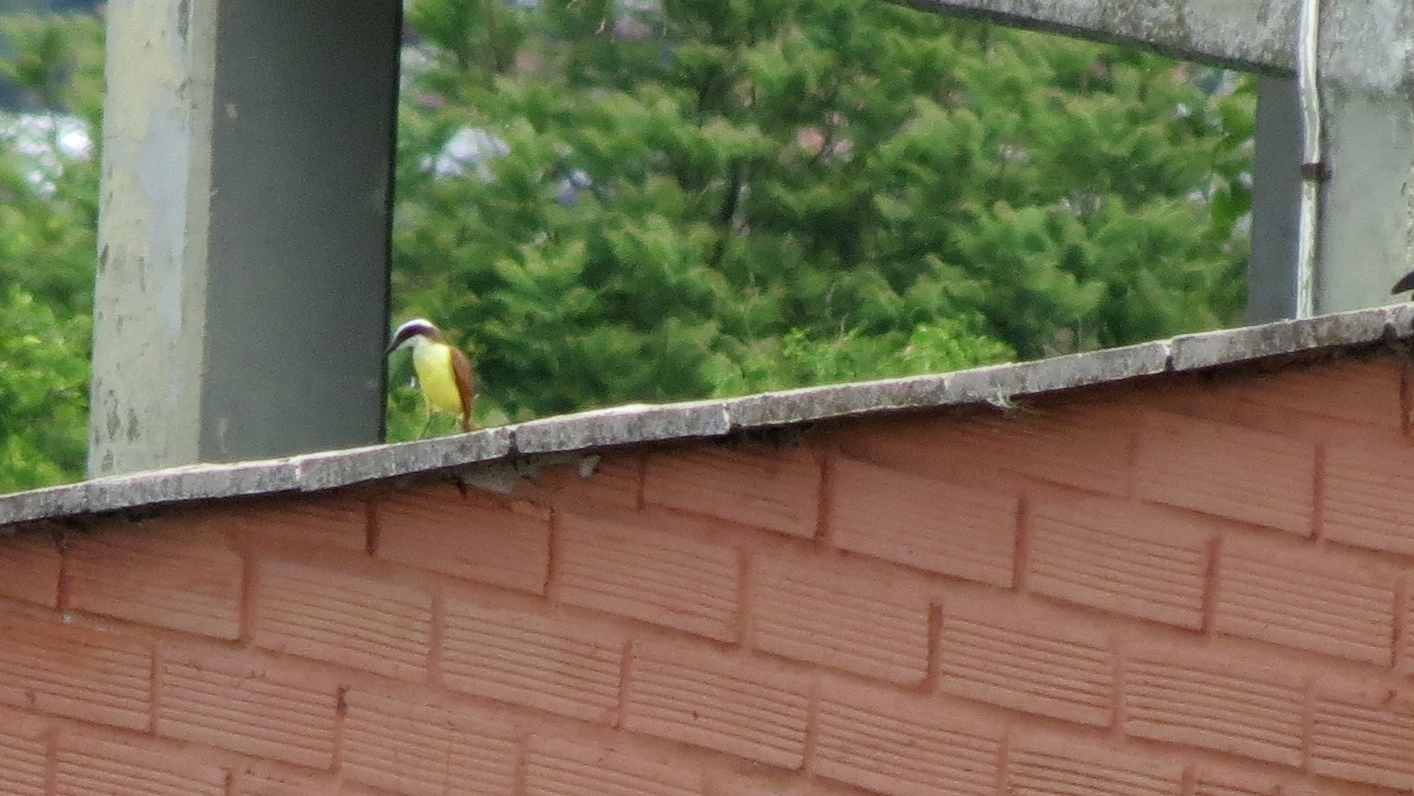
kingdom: Animalia
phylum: Chordata
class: Aves
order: Passeriformes
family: Tyrannidae
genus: Pitangus
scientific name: Pitangus sulphuratus
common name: Great kiskadee
